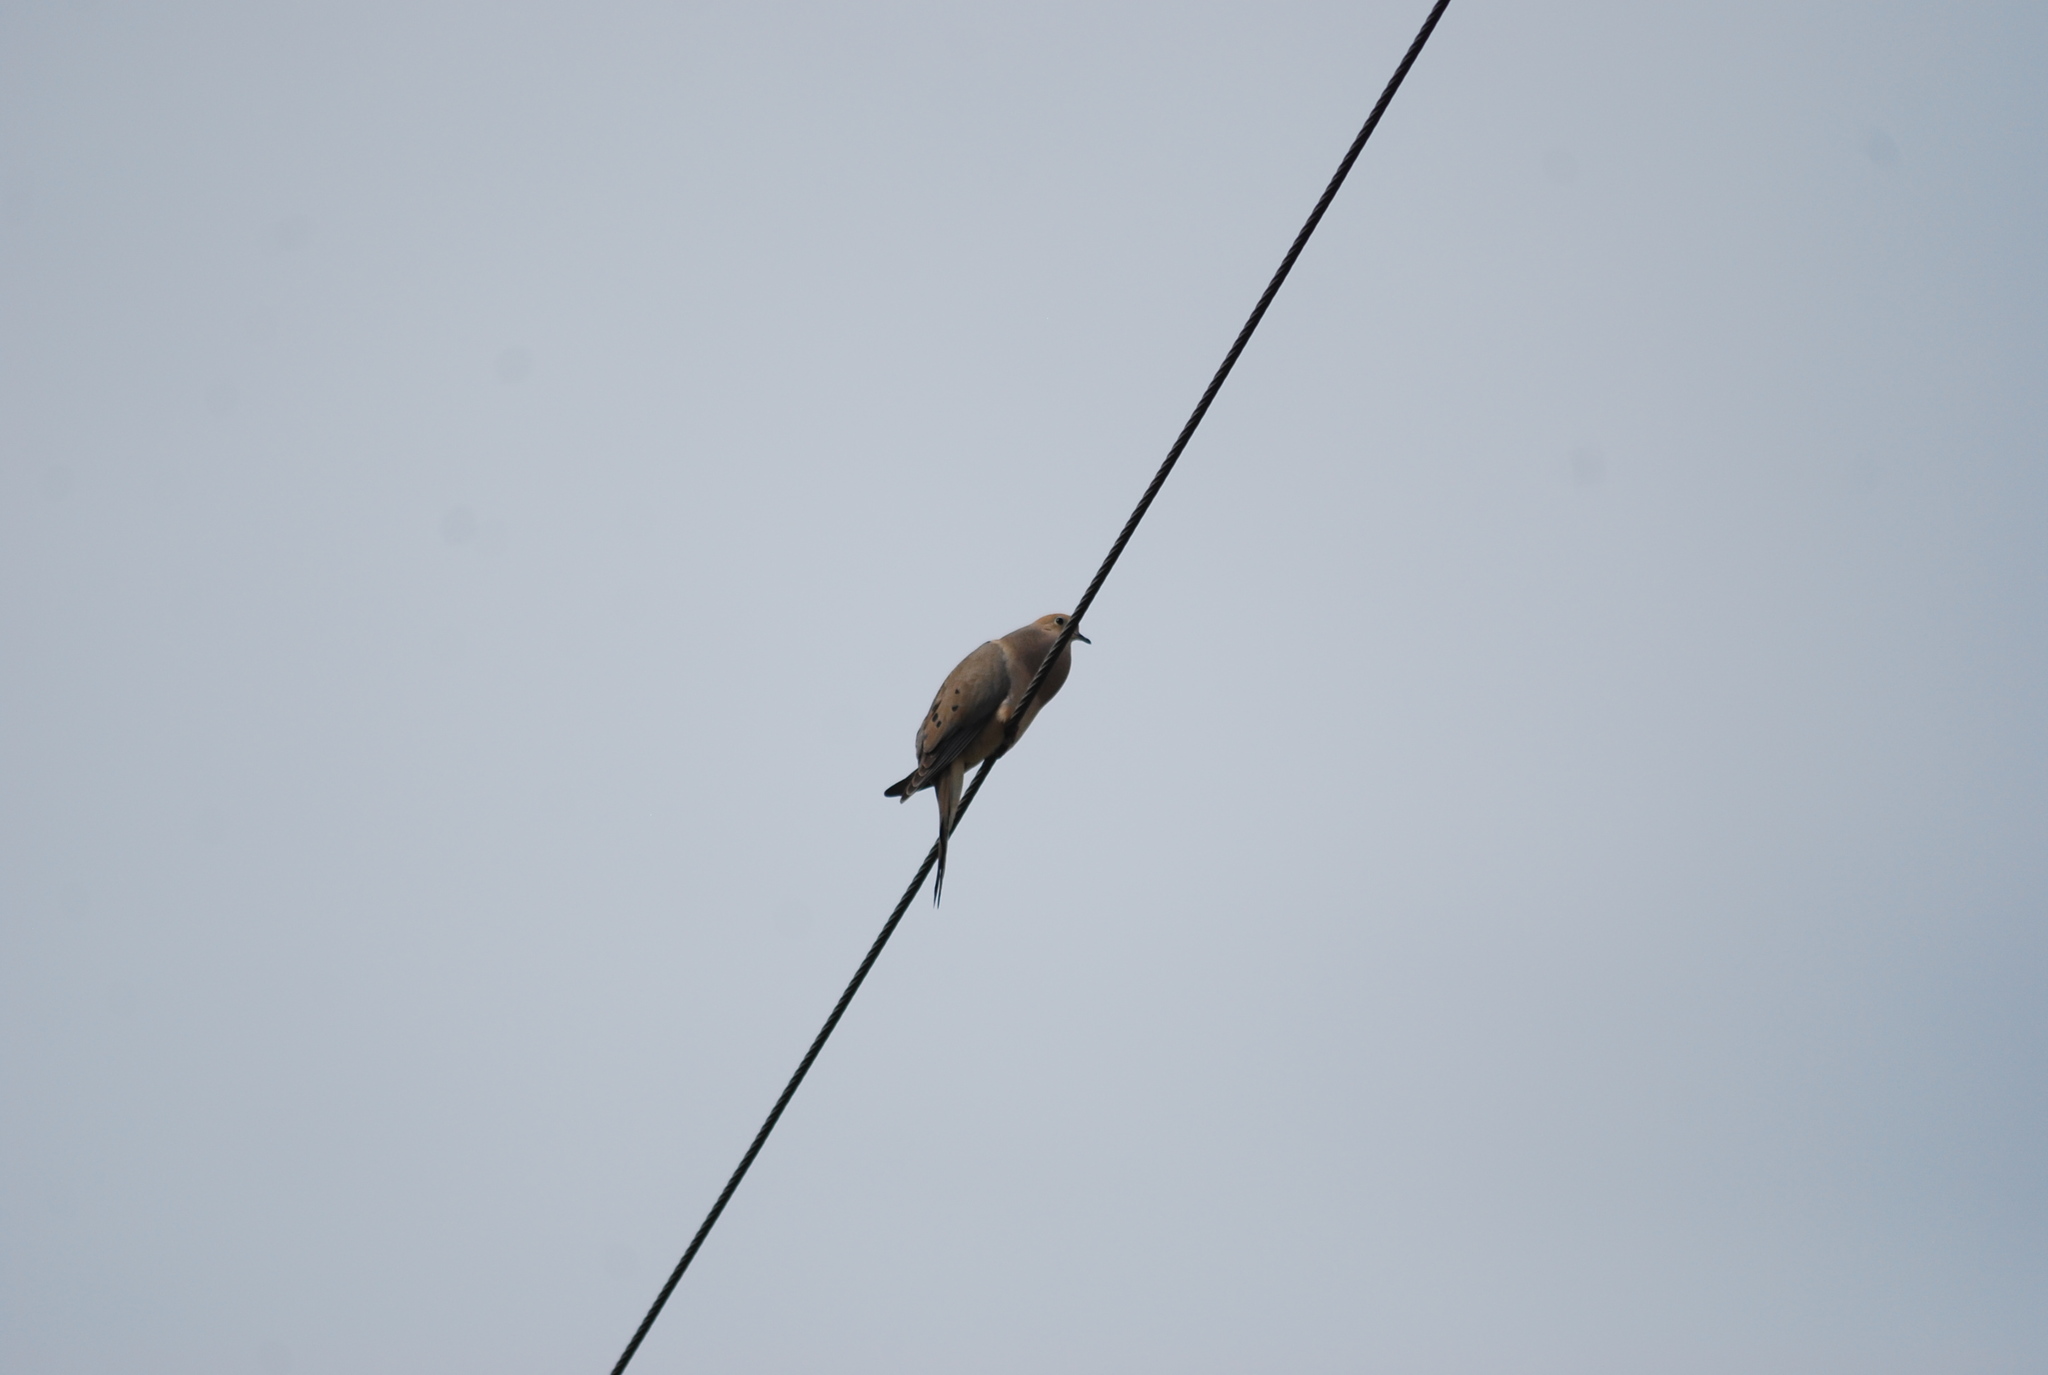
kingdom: Animalia
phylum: Chordata
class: Aves
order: Columbiformes
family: Columbidae
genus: Zenaida
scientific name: Zenaida macroura
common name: Mourning dove
